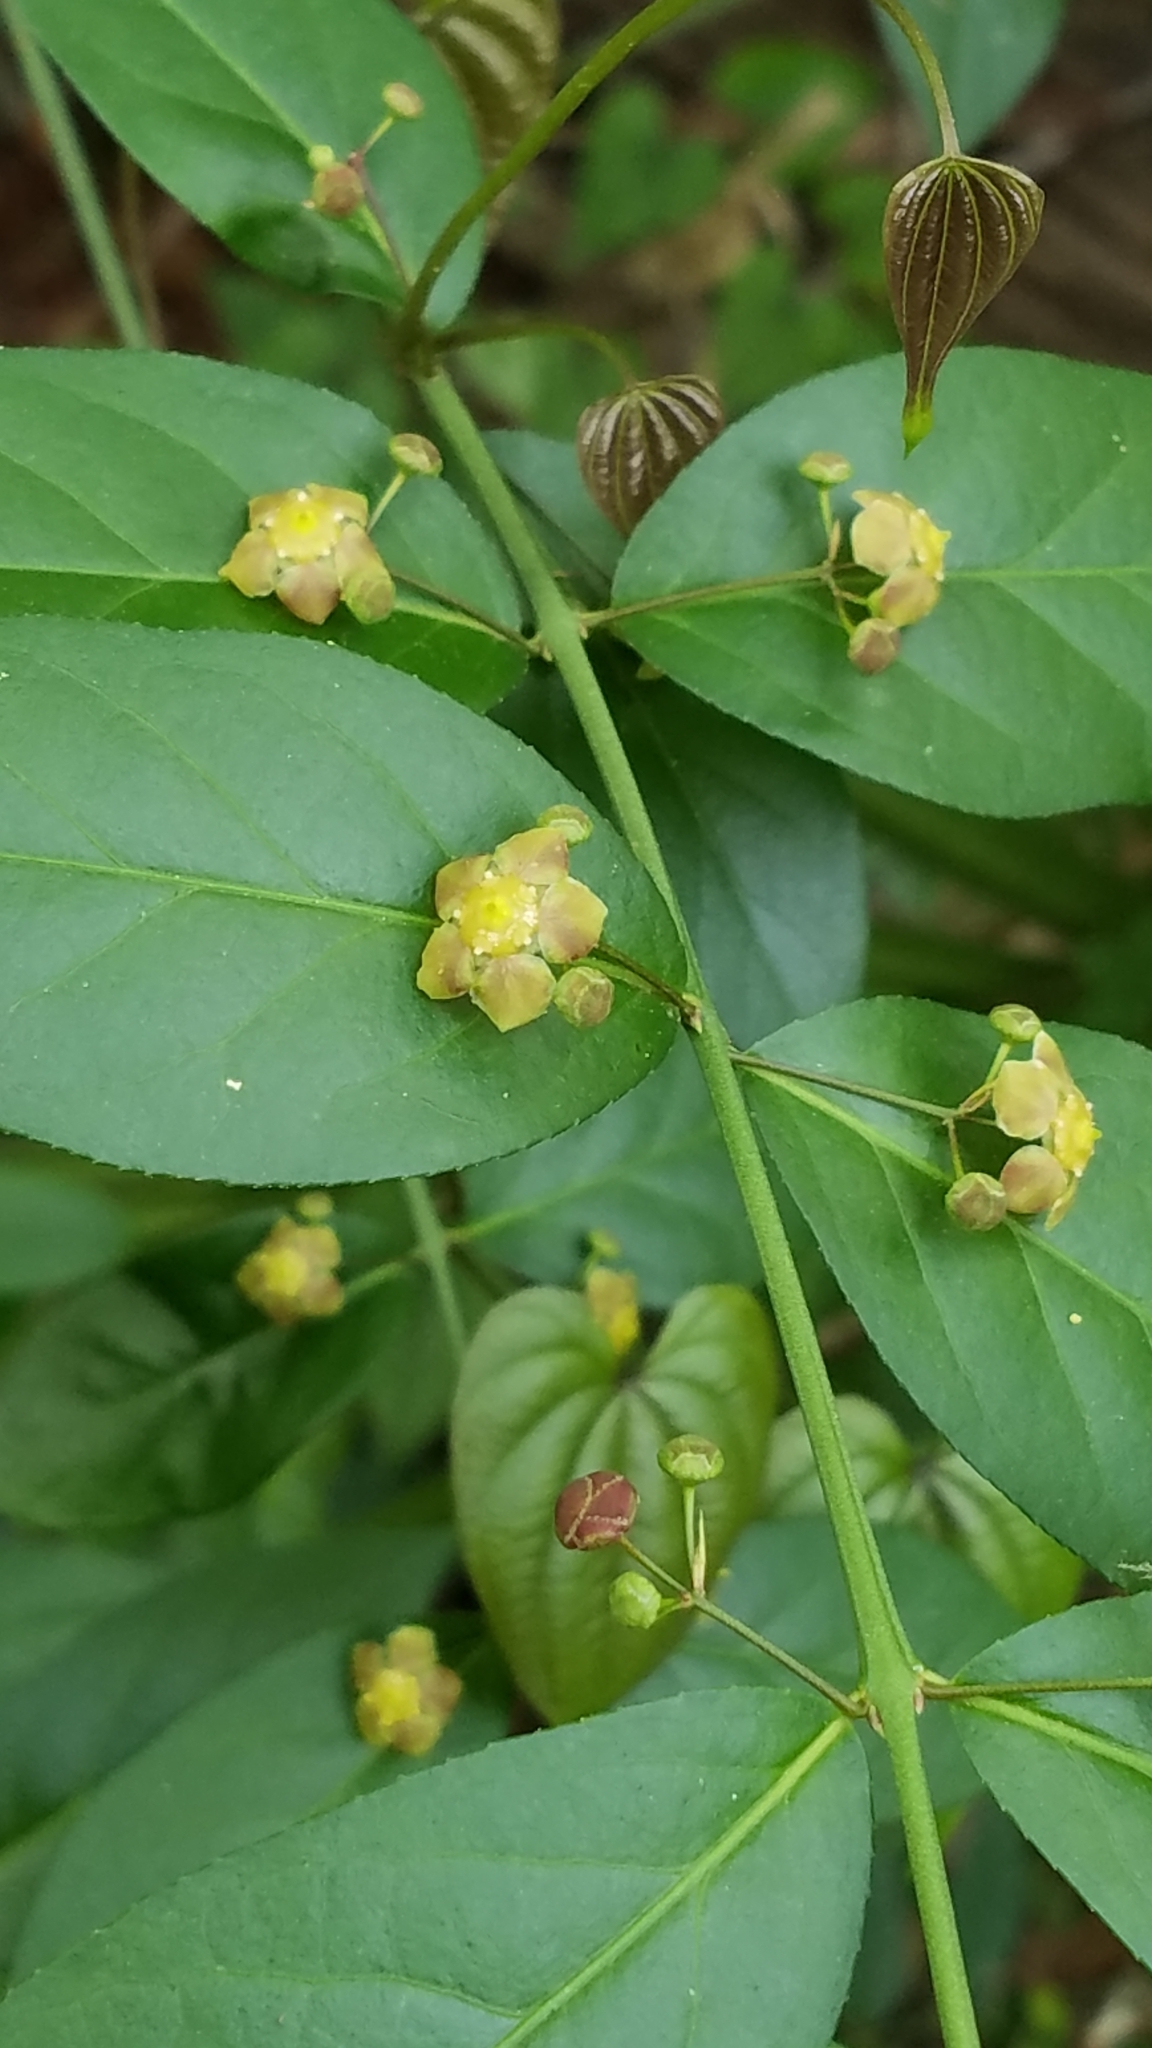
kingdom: Plantae
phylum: Tracheophyta
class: Magnoliopsida
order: Celastrales
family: Celastraceae
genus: Euonymus
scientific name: Euonymus americanus
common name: Bursting-heart
